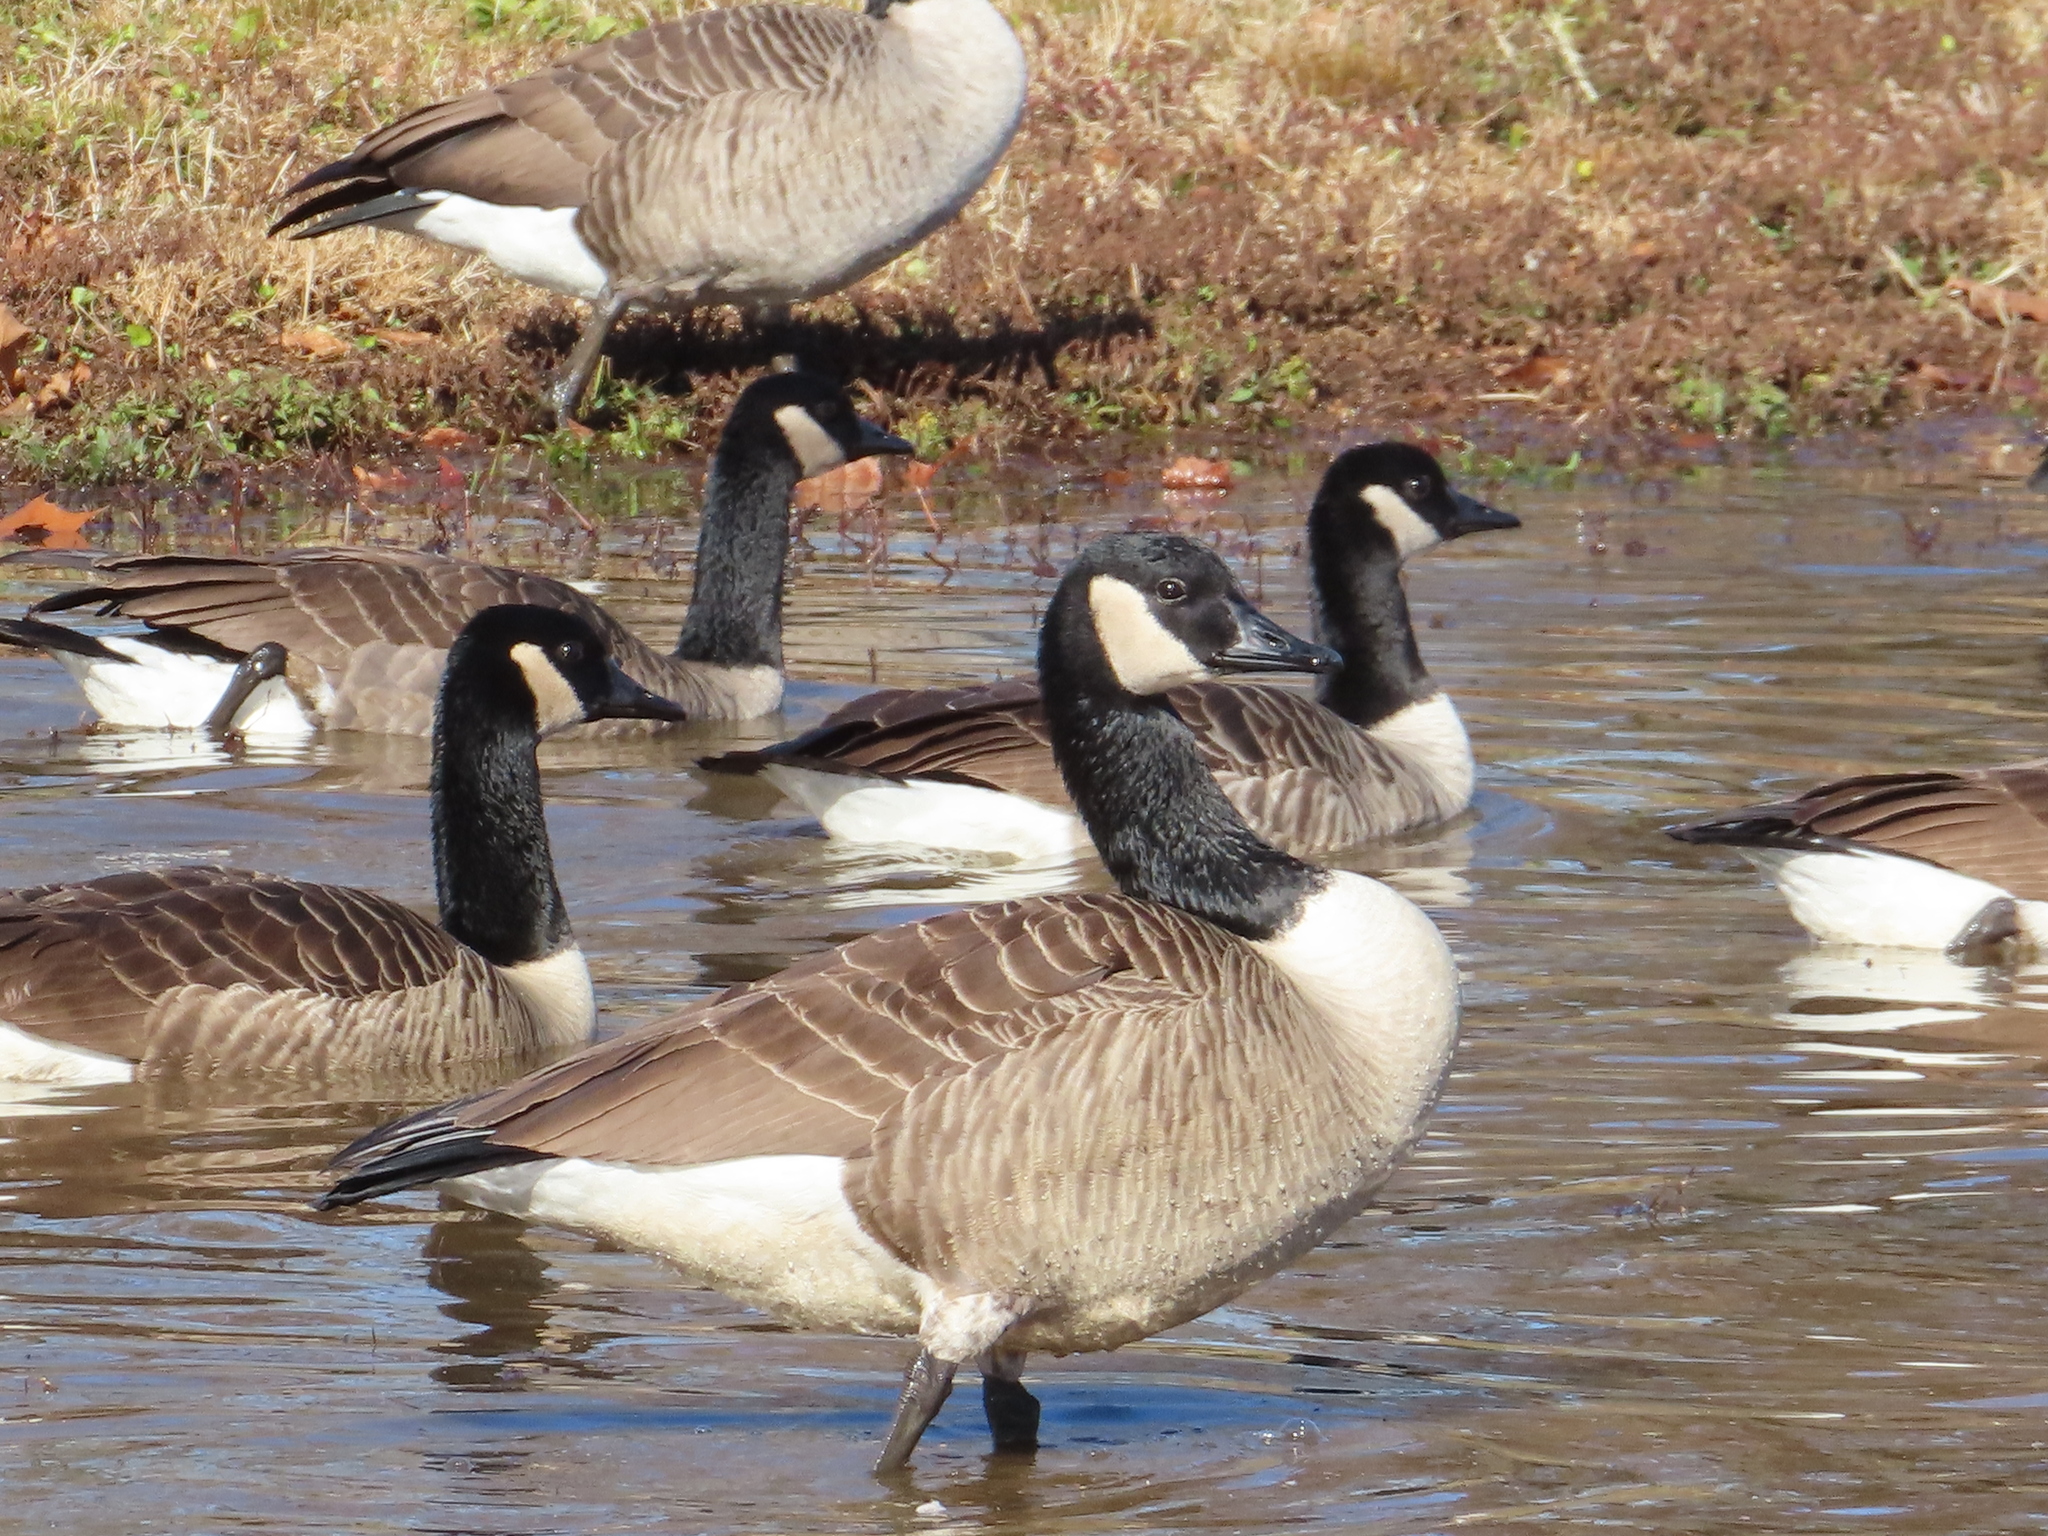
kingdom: Animalia
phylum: Chordata
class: Aves
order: Anseriformes
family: Anatidae
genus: Branta
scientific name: Branta canadensis
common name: Canada goose
